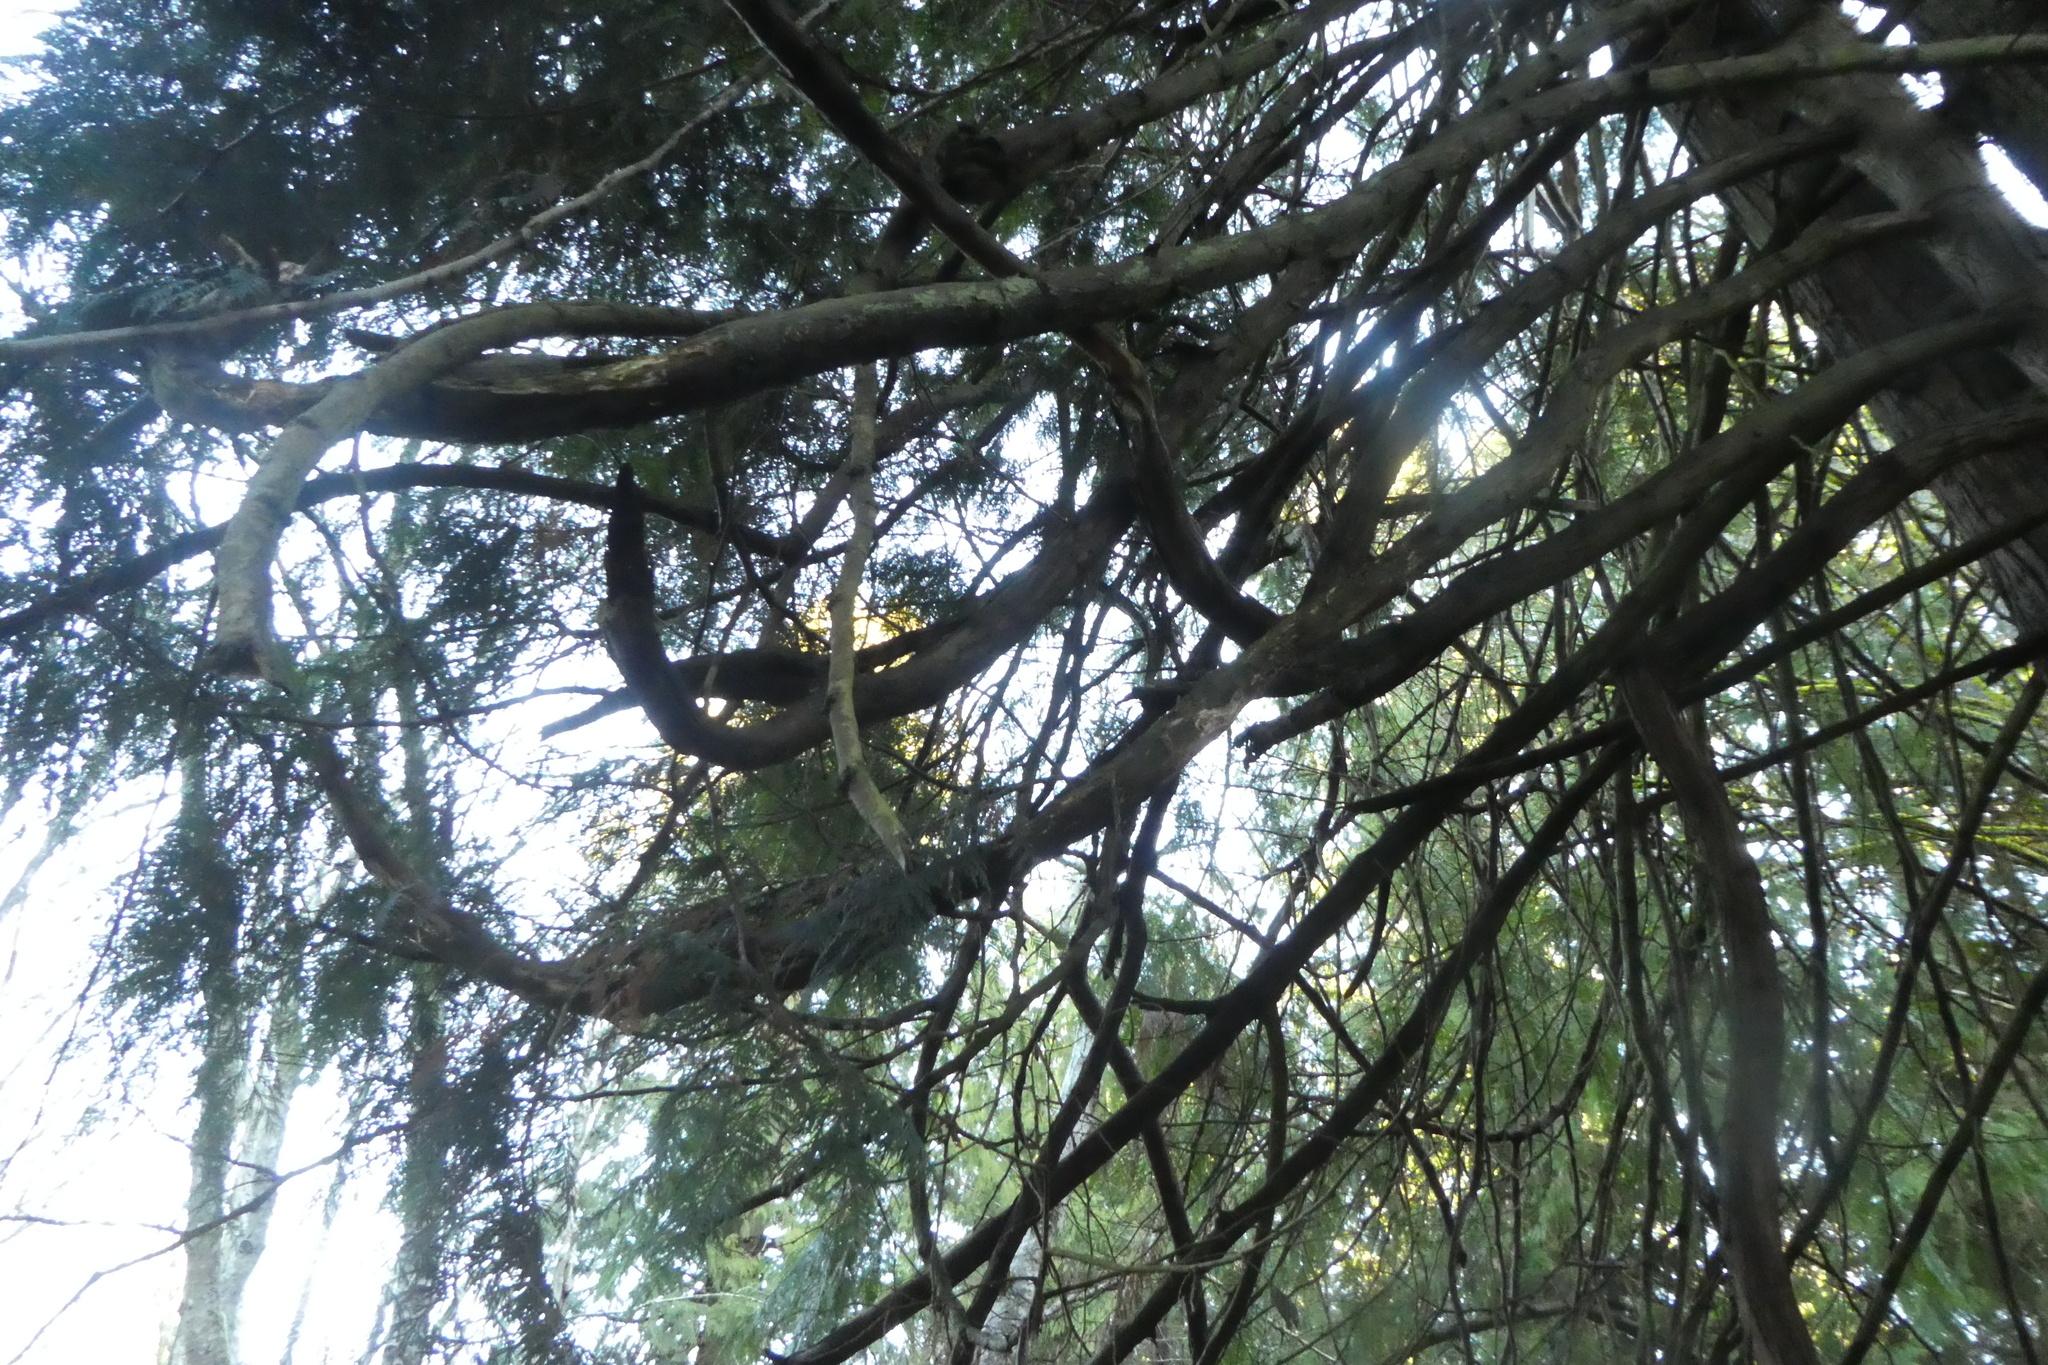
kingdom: Plantae
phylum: Tracheophyta
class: Pinopsida
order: Pinales
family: Cupressaceae
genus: Thuja
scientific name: Thuja plicata
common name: Western red-cedar
